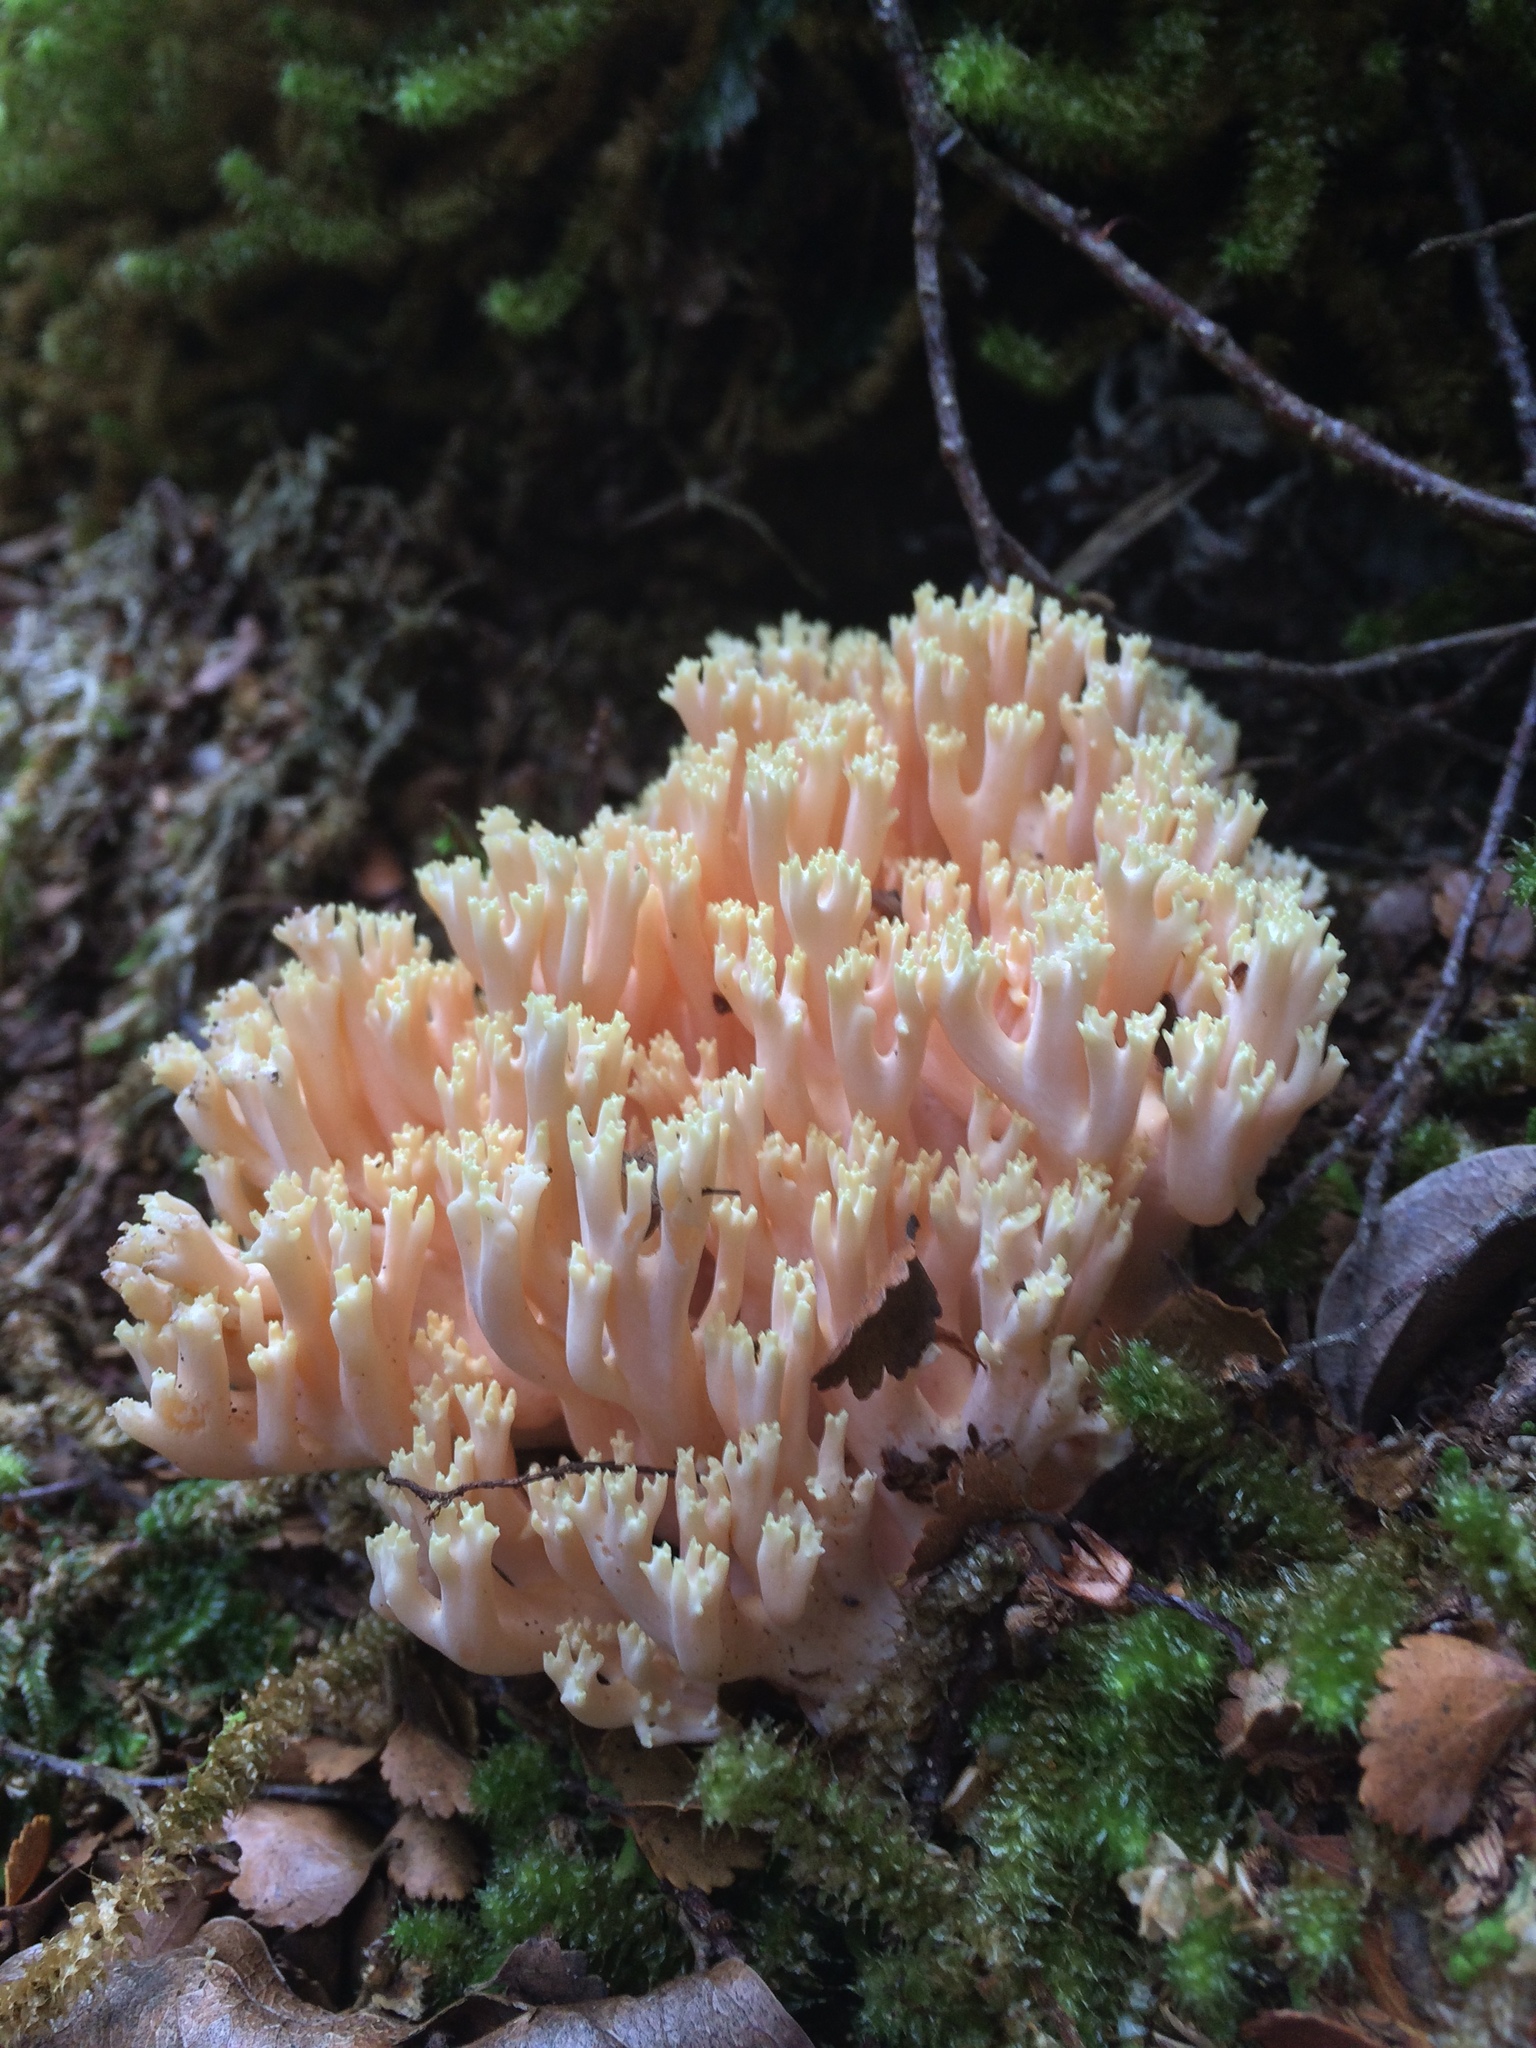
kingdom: Fungi
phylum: Basidiomycota
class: Agaricomycetes
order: Gomphales
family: Gomphaceae
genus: Ramaria
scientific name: Ramaria samuelsii
